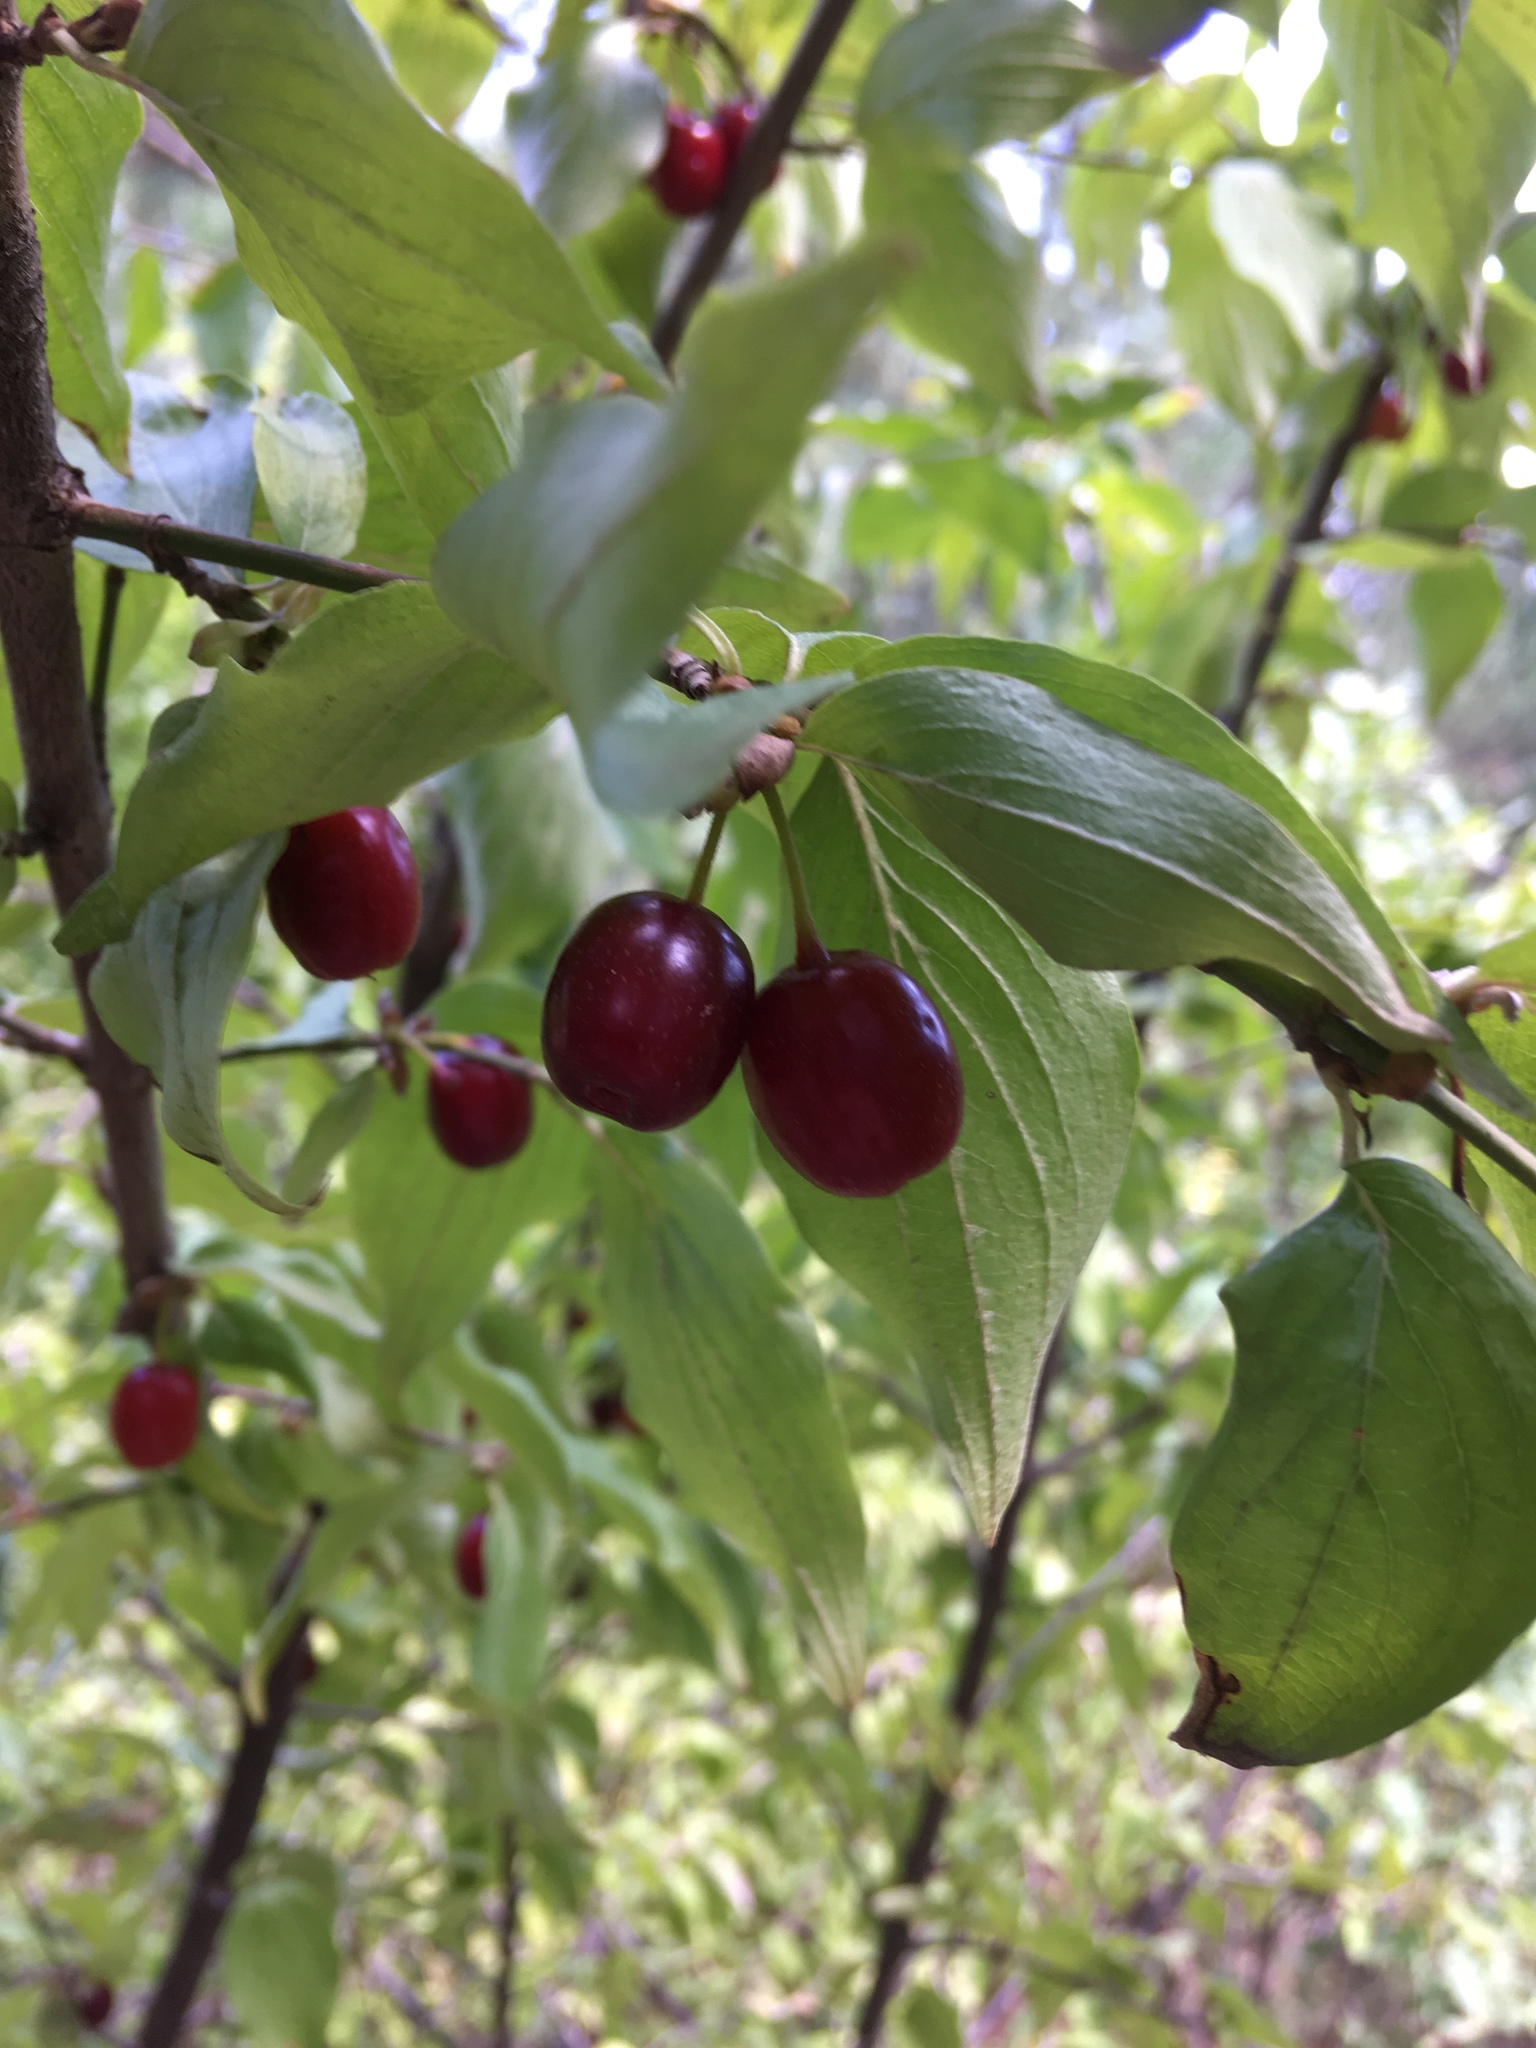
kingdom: Plantae
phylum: Tracheophyta
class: Magnoliopsida
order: Cornales
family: Cornaceae
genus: Cornus
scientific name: Cornus mas
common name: Cornelian-cherry
